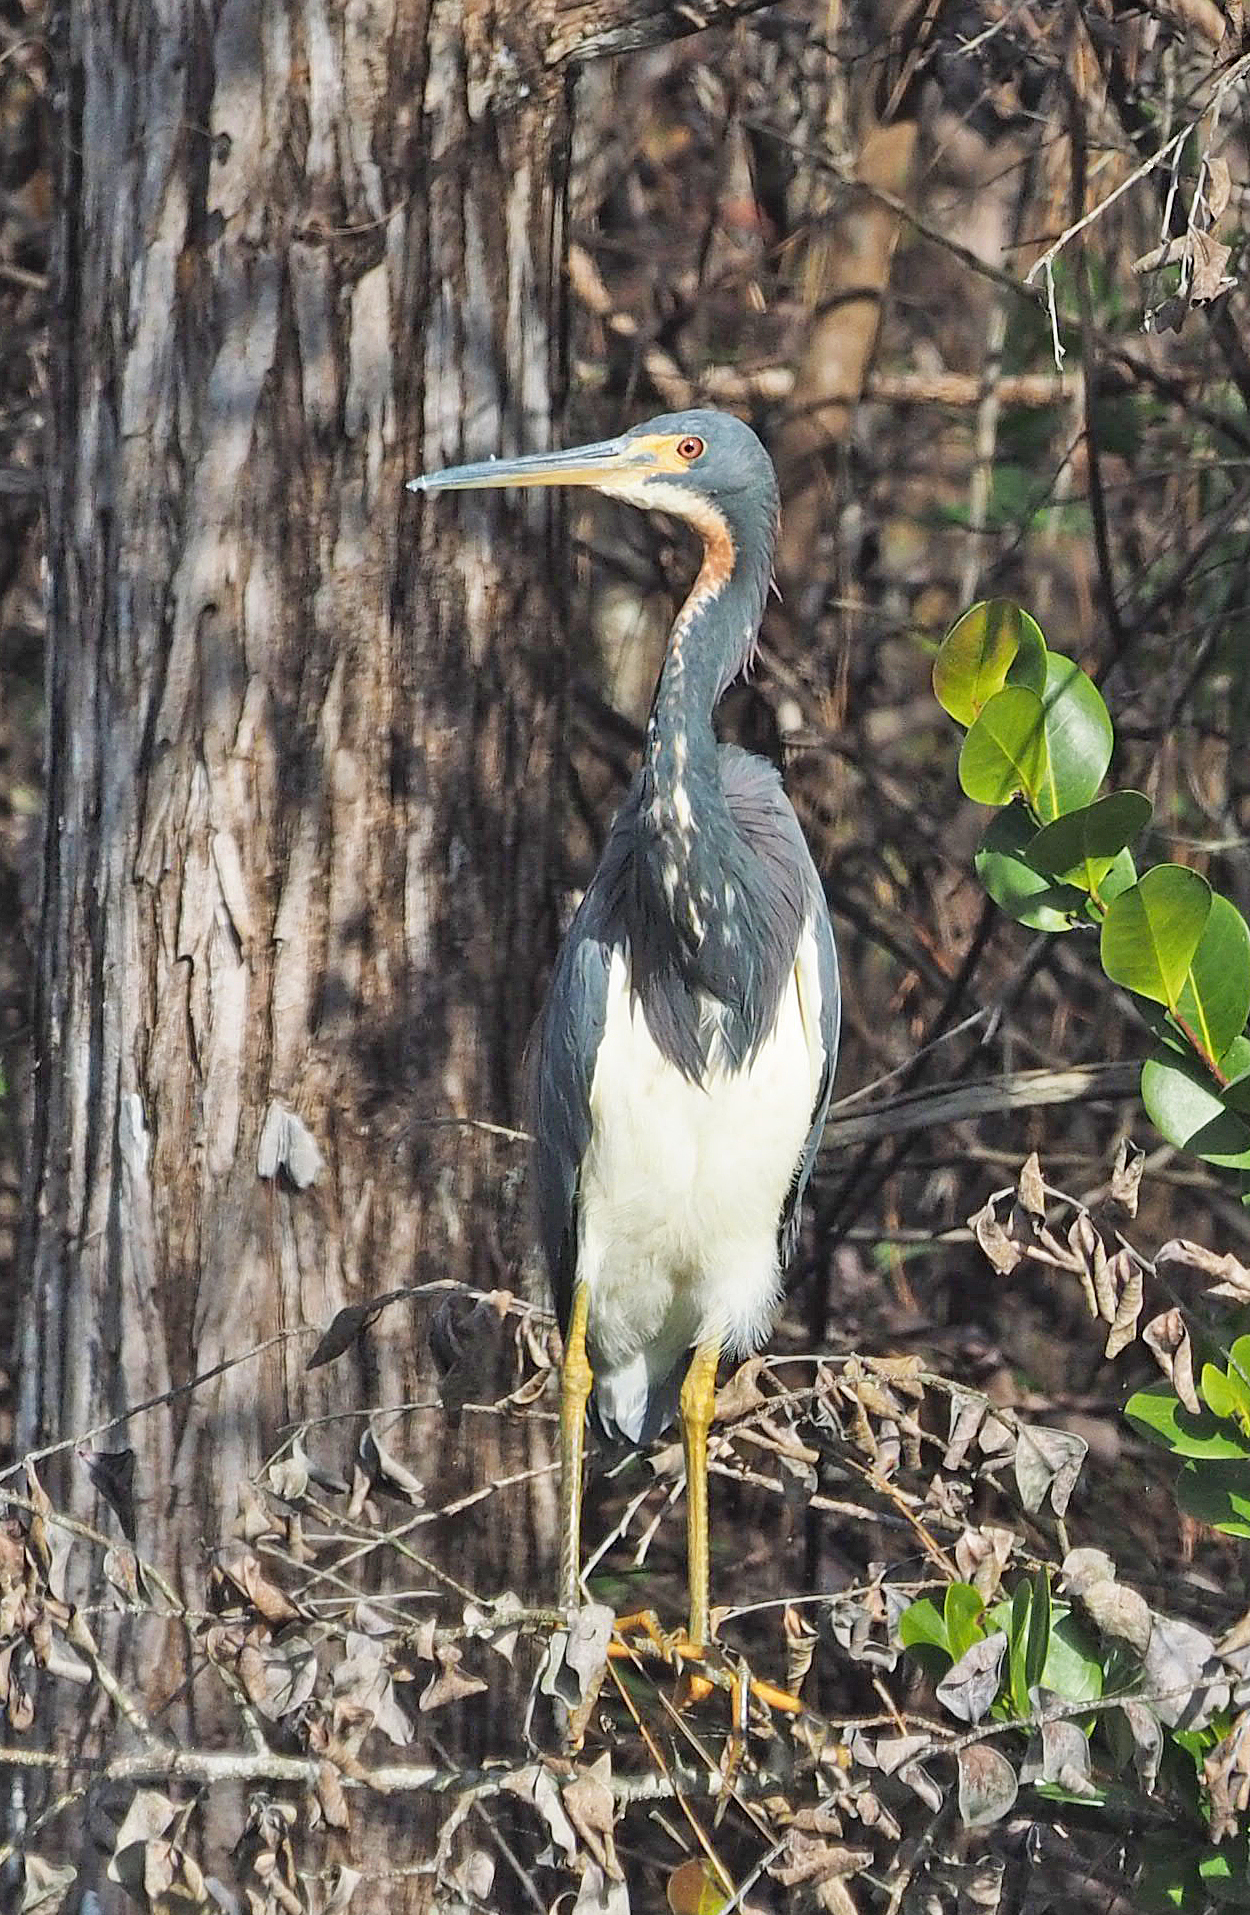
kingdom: Animalia
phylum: Chordata
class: Aves
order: Pelecaniformes
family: Ardeidae
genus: Egretta
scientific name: Egretta tricolor
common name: Tricolored heron
